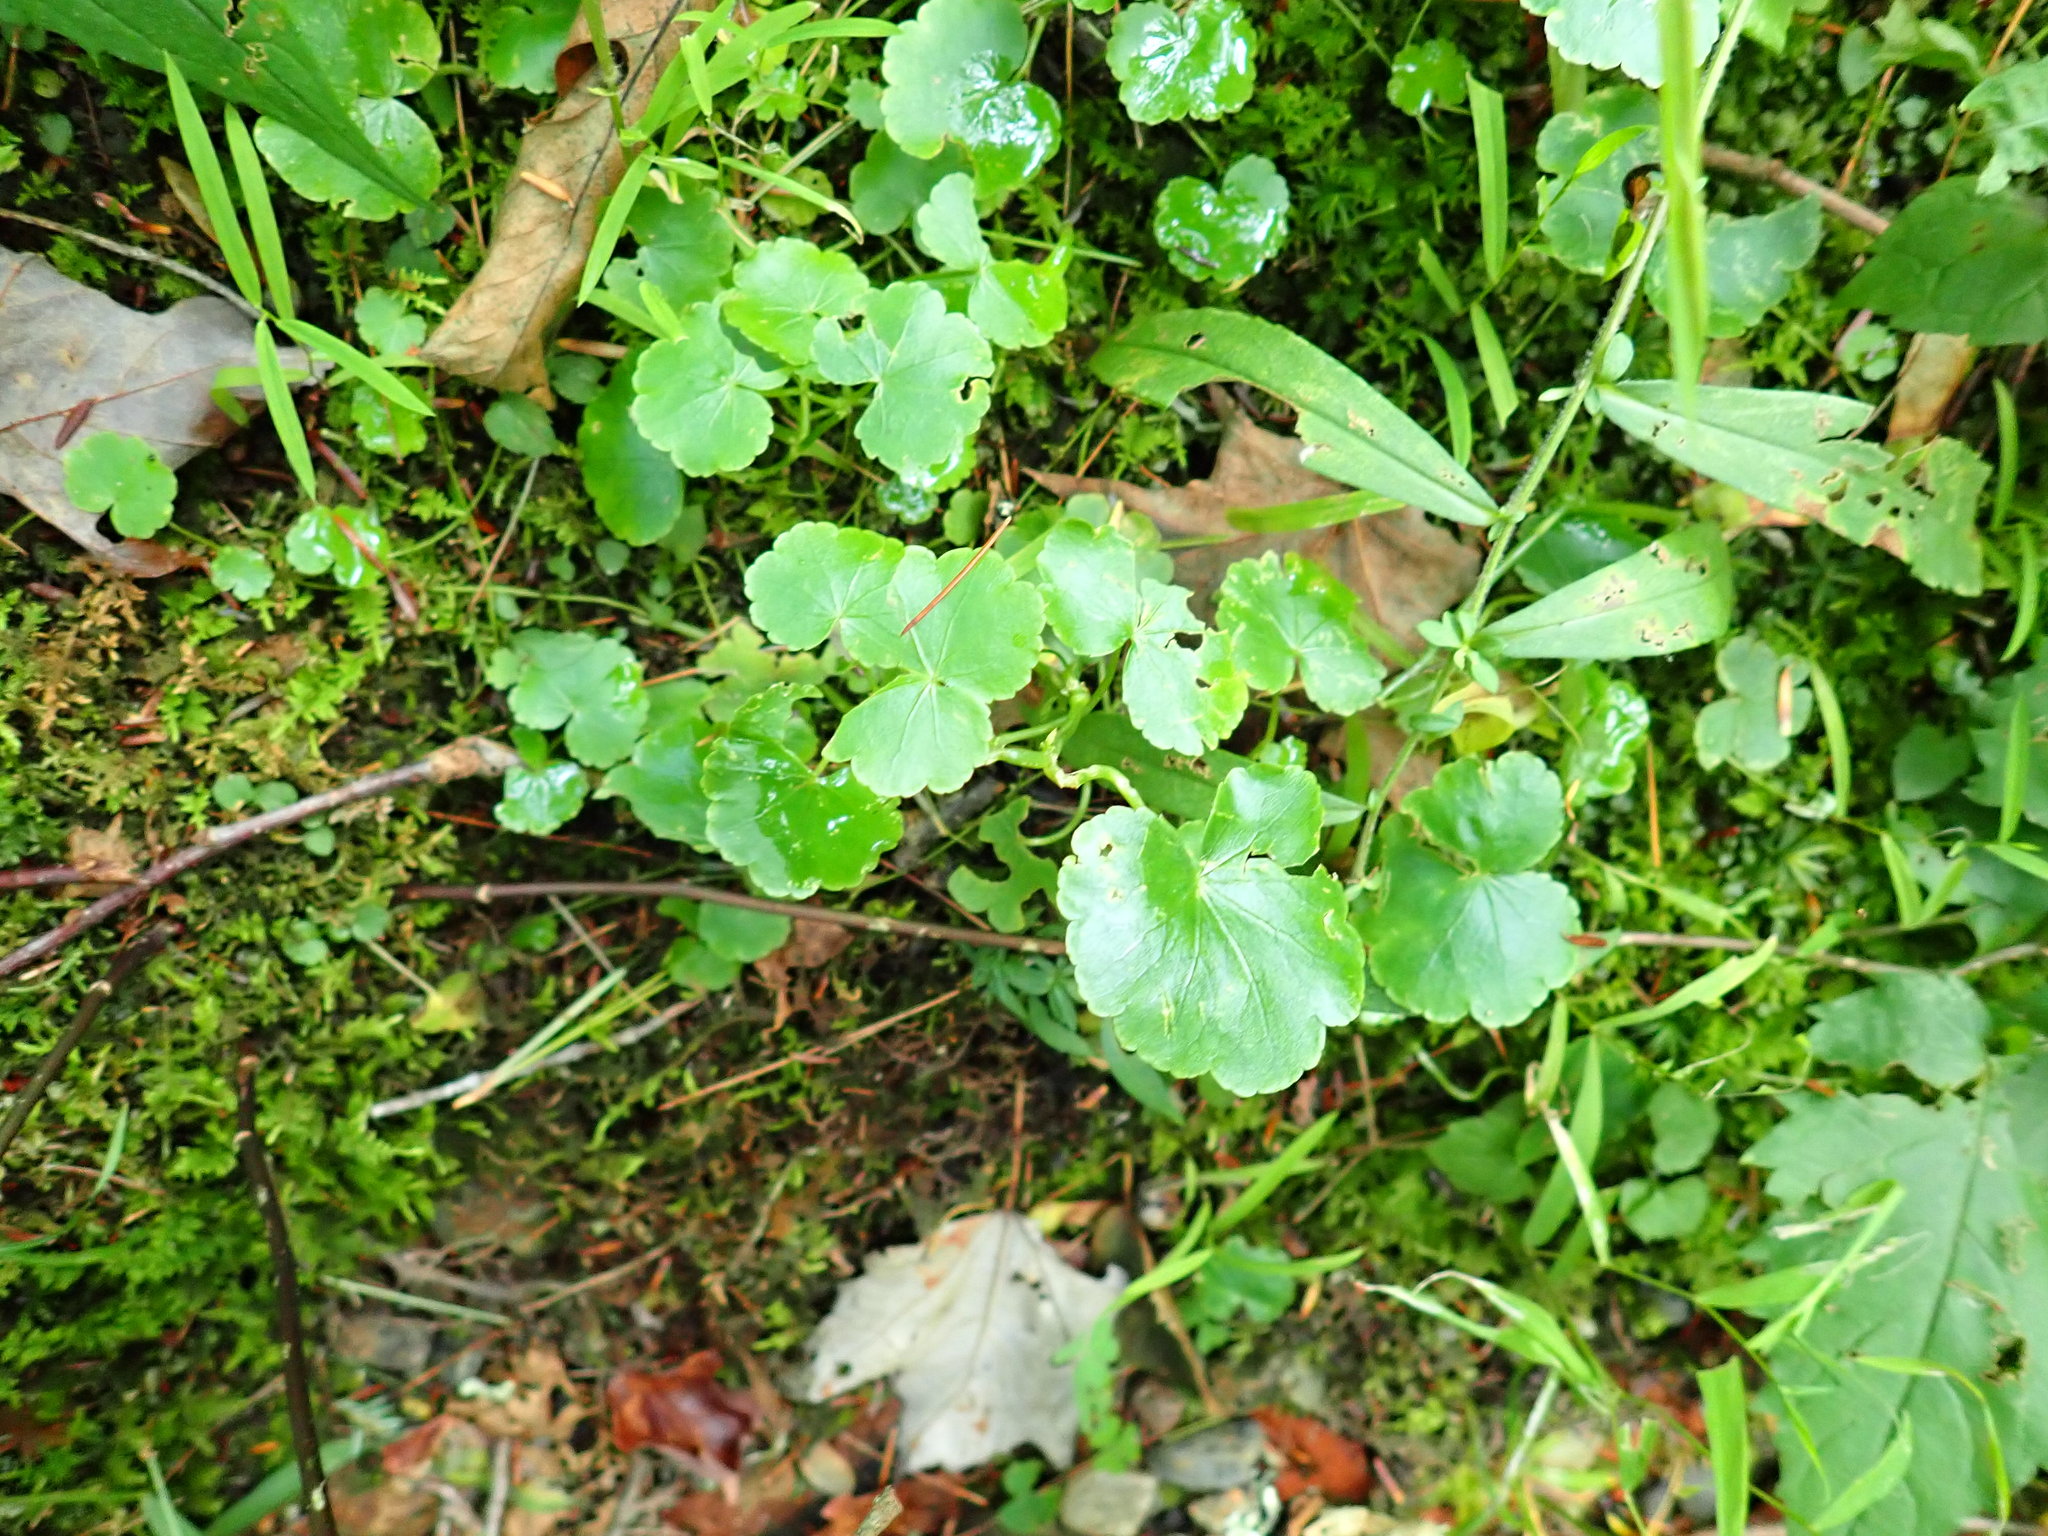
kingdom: Plantae
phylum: Tracheophyta
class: Magnoliopsida
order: Apiales
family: Araliaceae
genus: Hydrocotyle
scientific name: Hydrocotyle americana
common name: American water-pennywort
